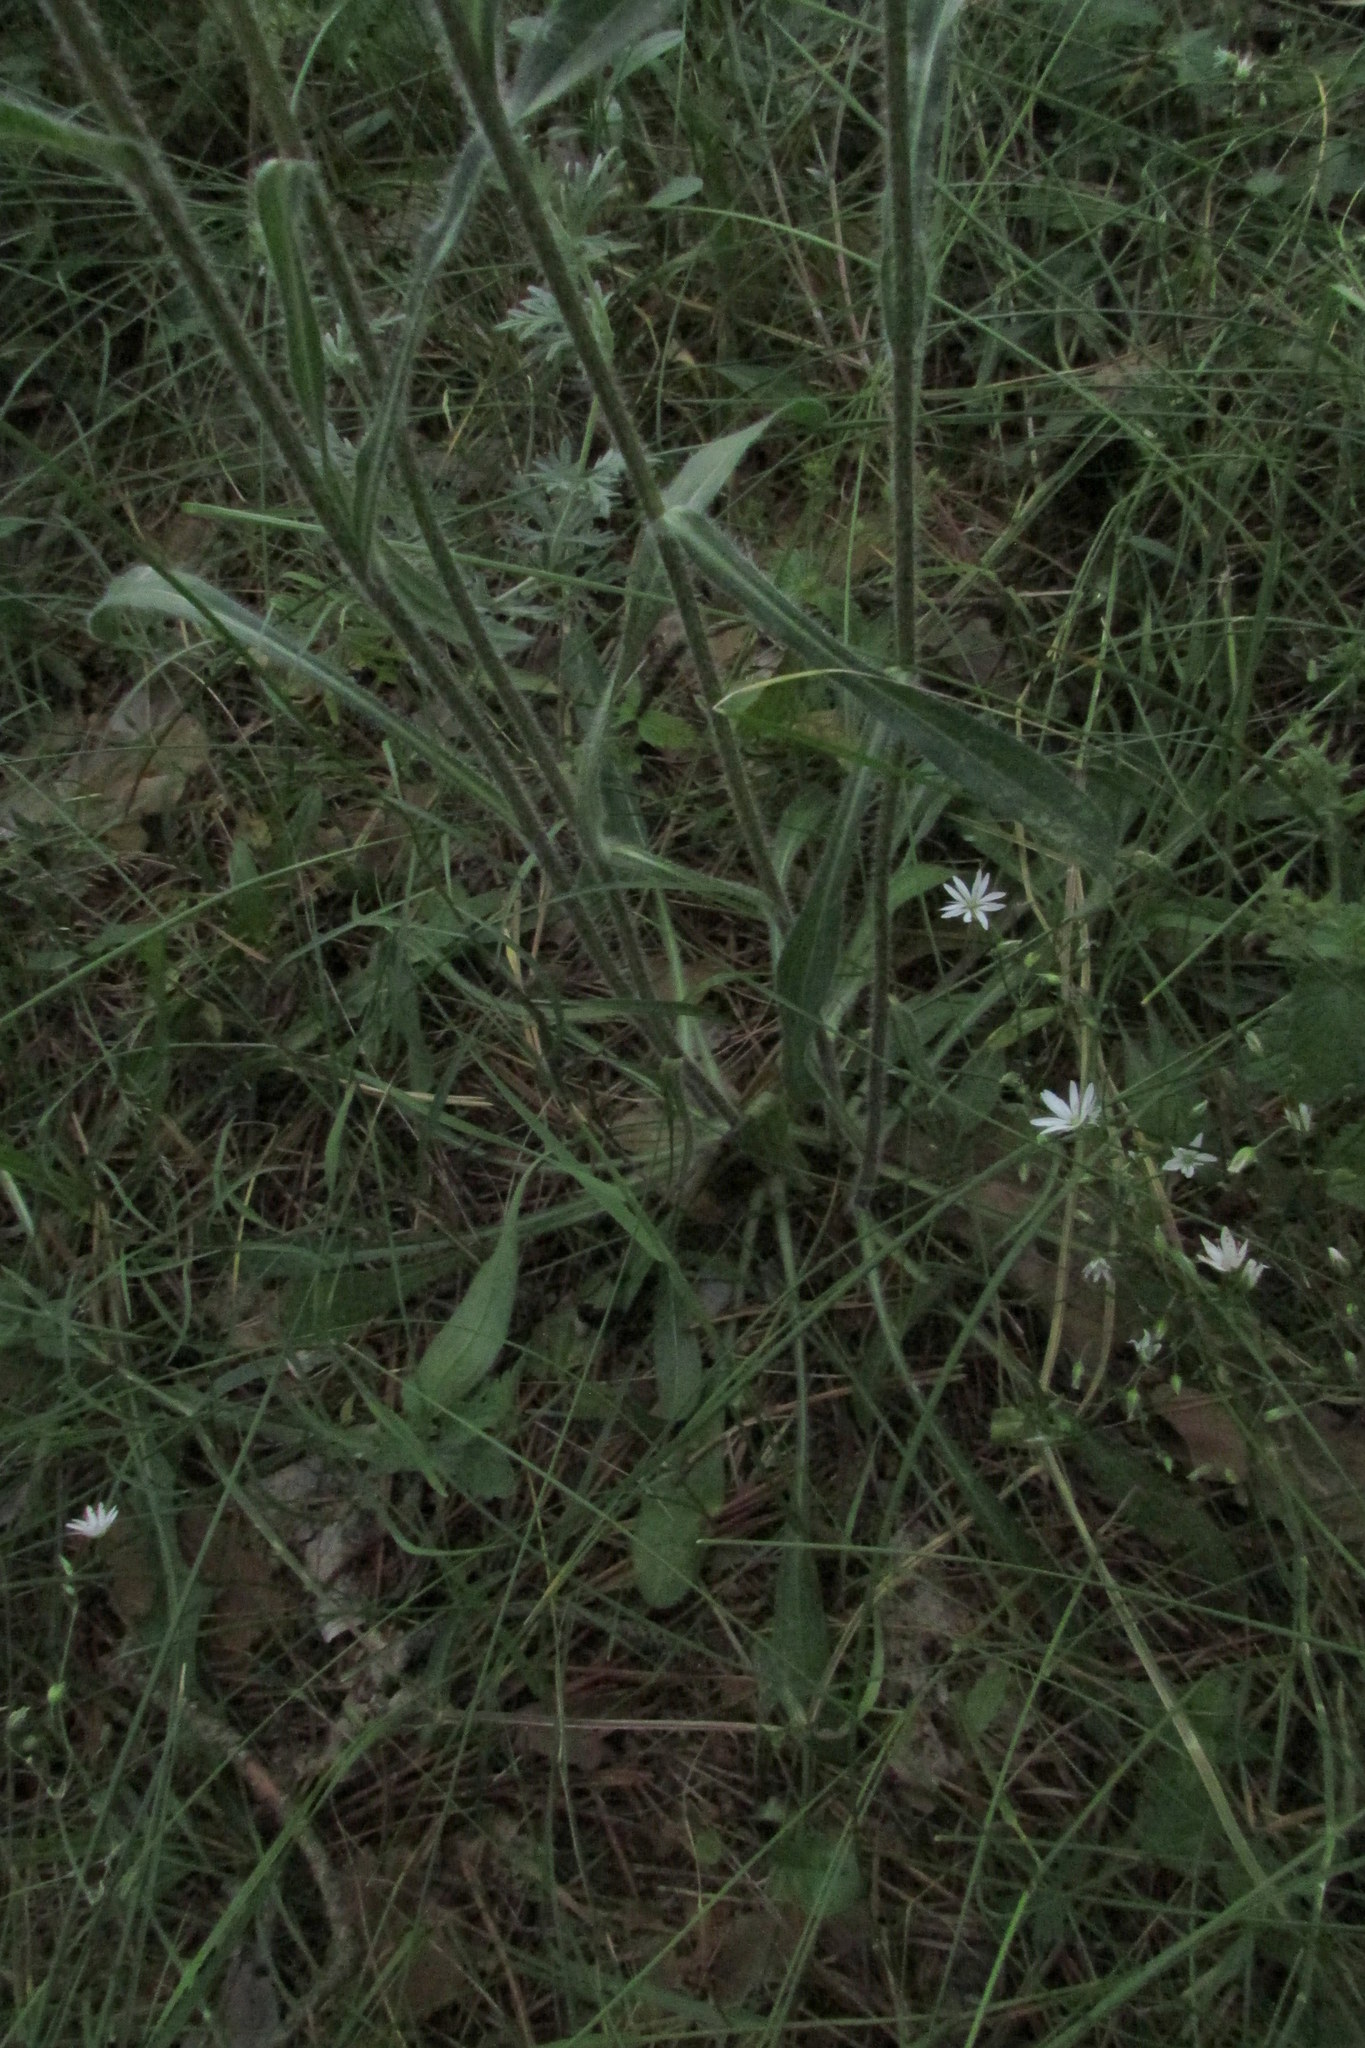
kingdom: Plantae
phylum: Tracheophyta
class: Magnoliopsida
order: Asterales
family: Asteraceae
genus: Erigeron
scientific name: Erigeron acris
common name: Blue fleabane
